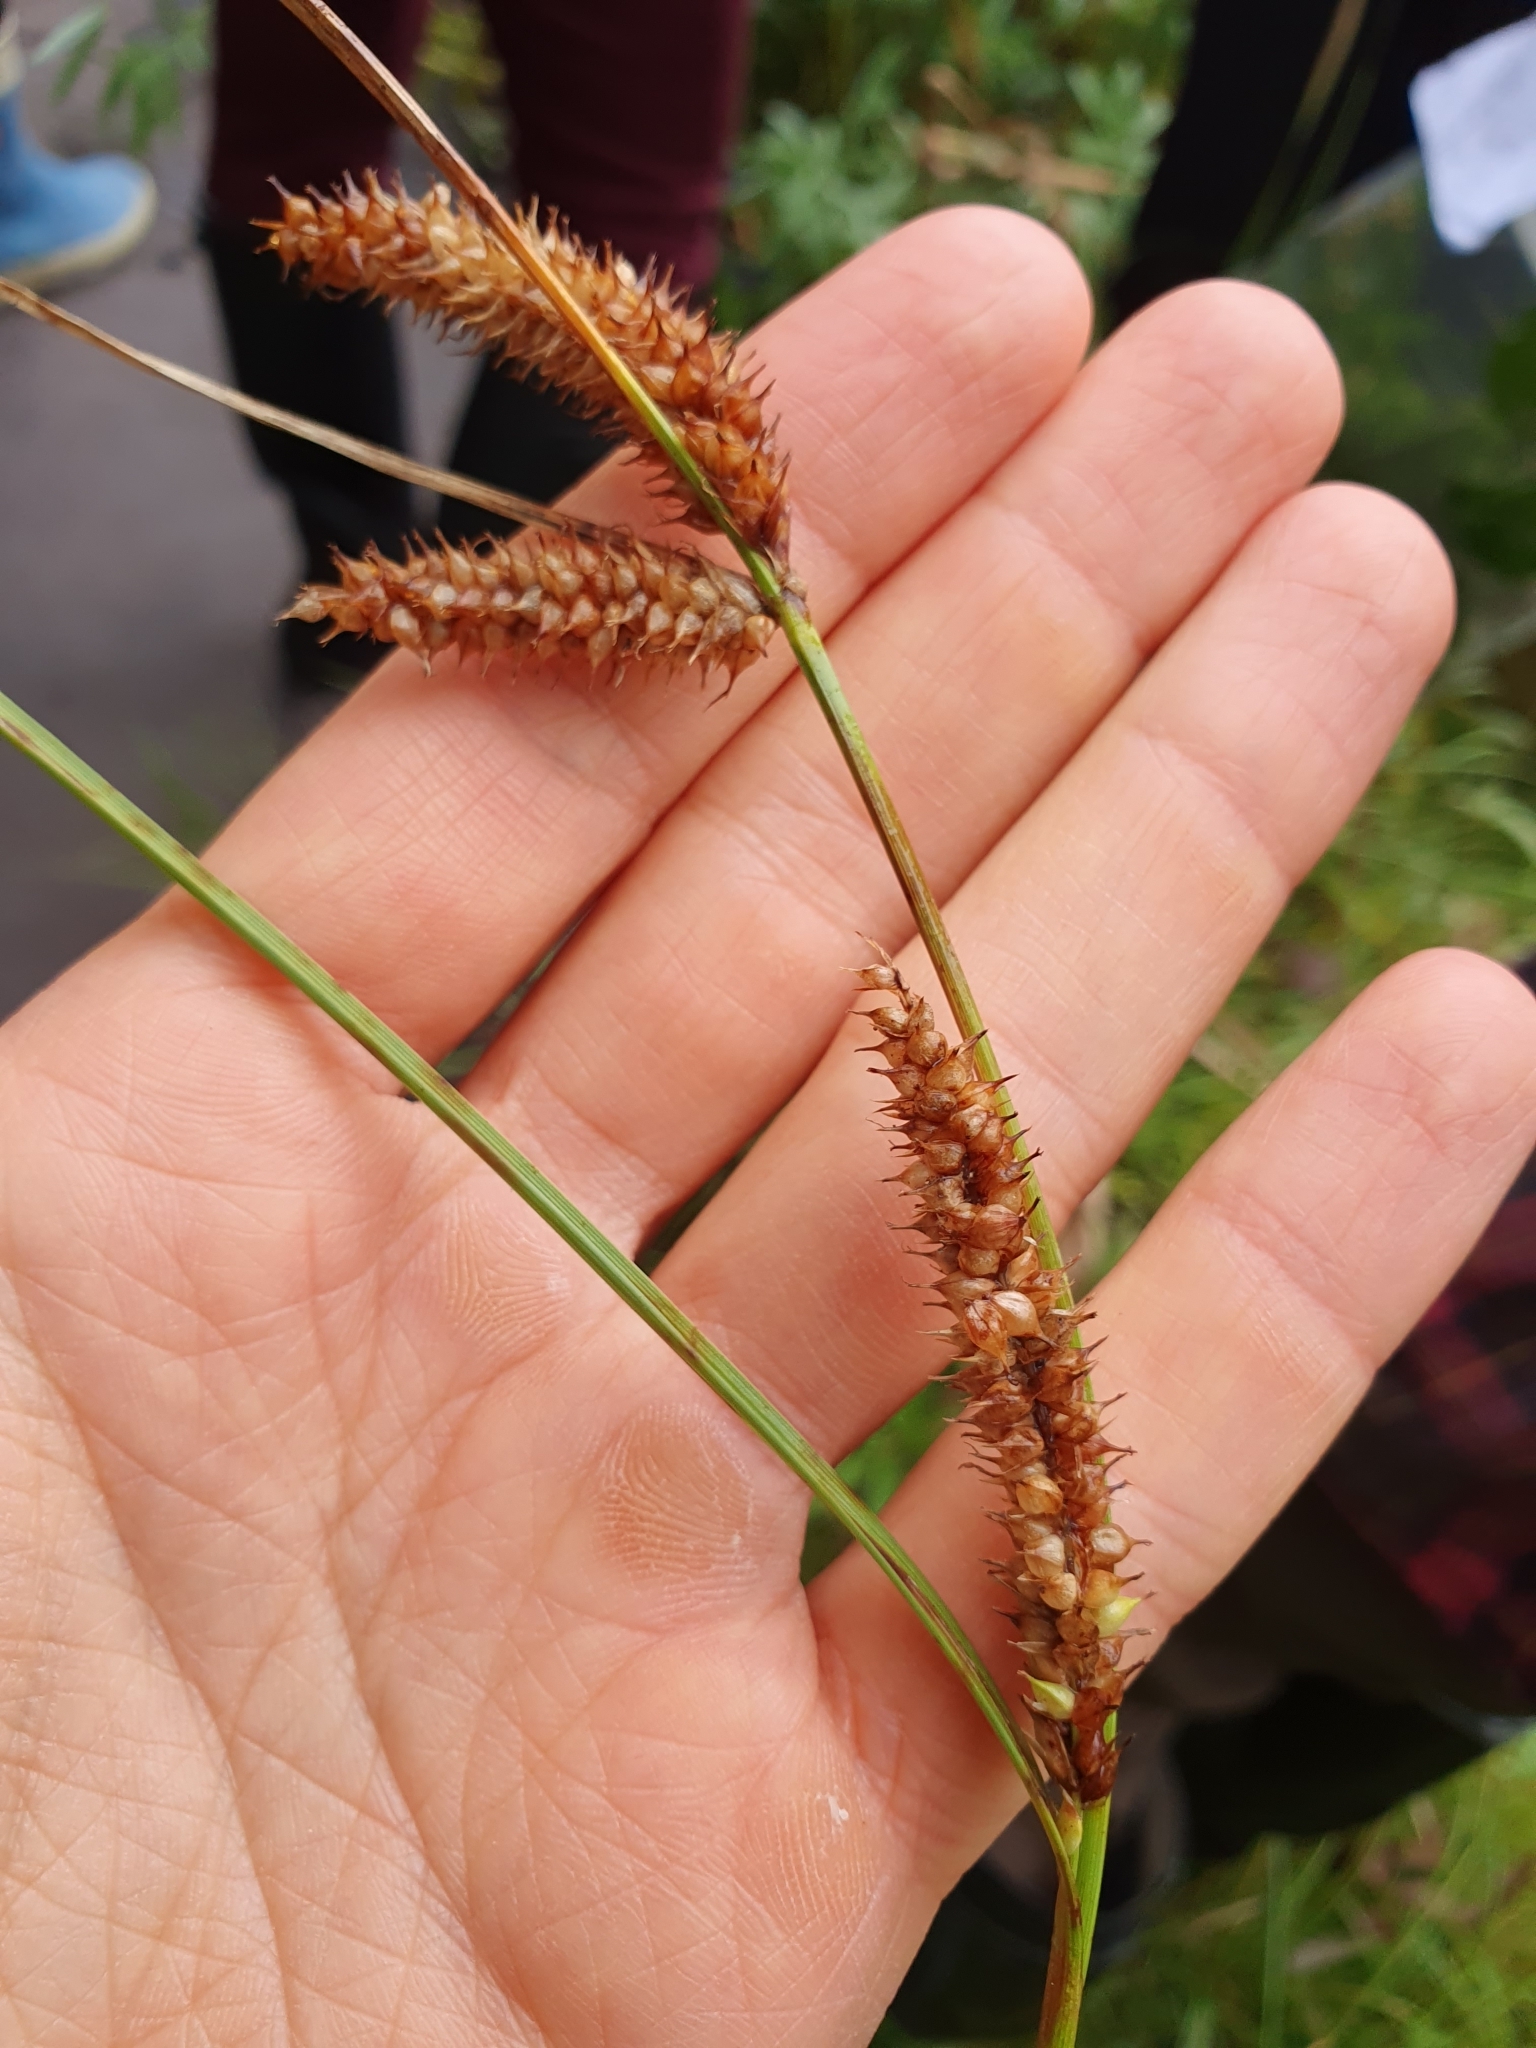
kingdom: Plantae
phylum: Tracheophyta
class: Liliopsida
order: Poales
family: Cyperaceae
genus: Carex
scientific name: Carex rostrata
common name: Bottle sedge
